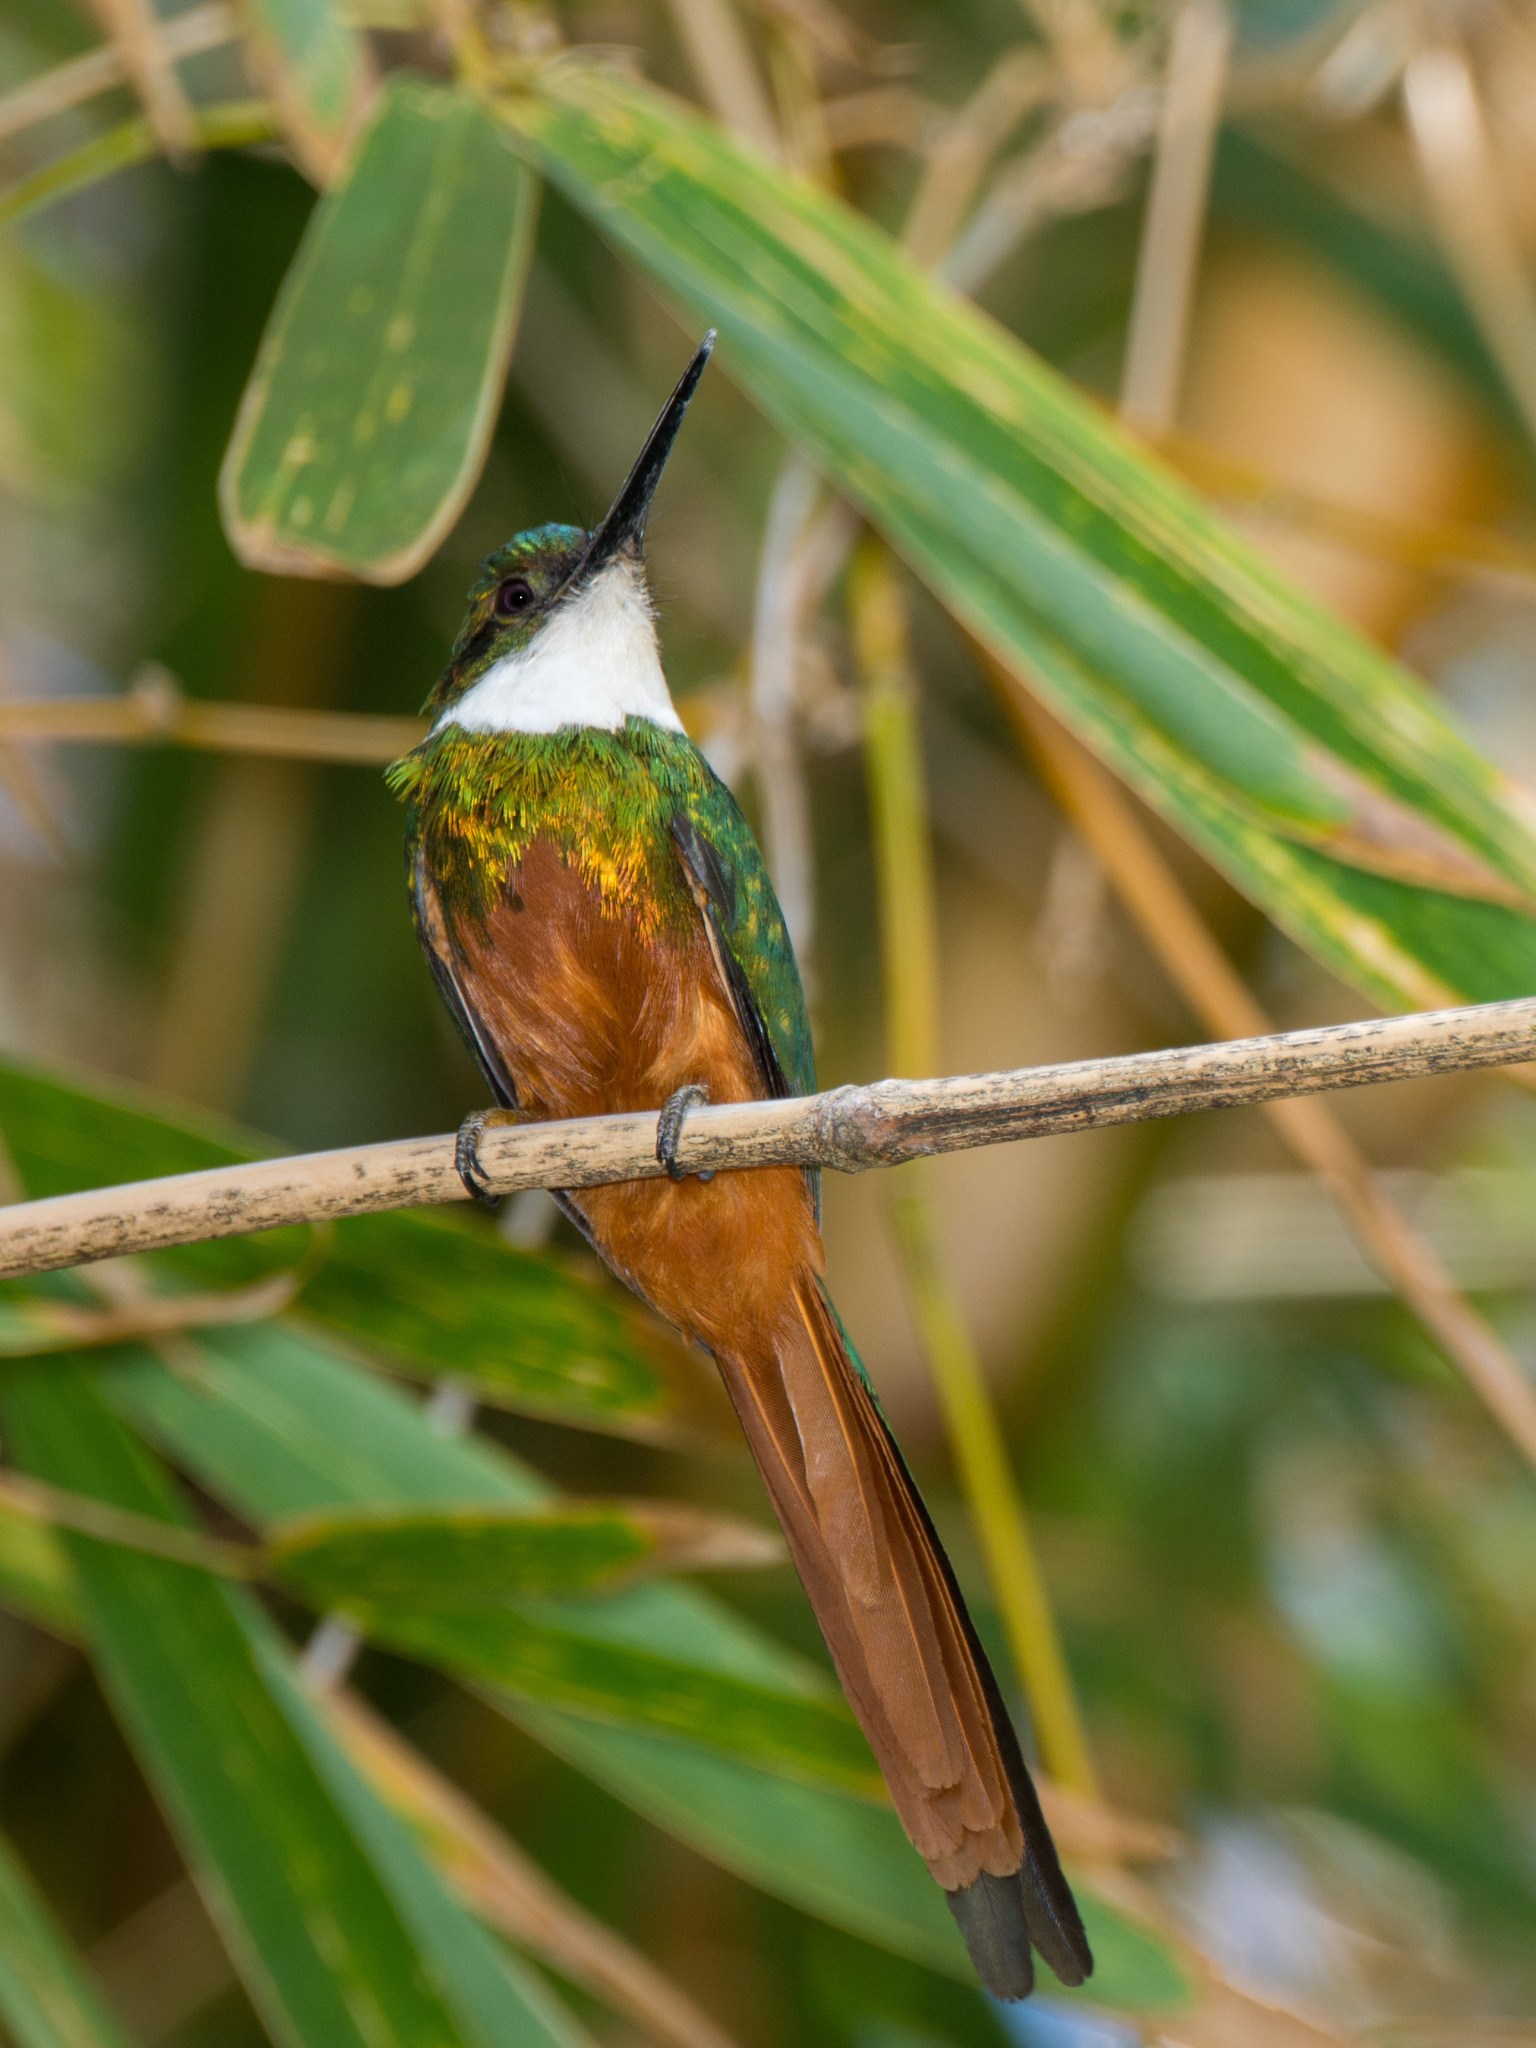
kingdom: Animalia
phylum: Chordata
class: Aves
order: Piciformes
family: Galbulidae
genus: Galbula
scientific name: Galbula ruficauda
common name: Rufous-tailed jacamar
